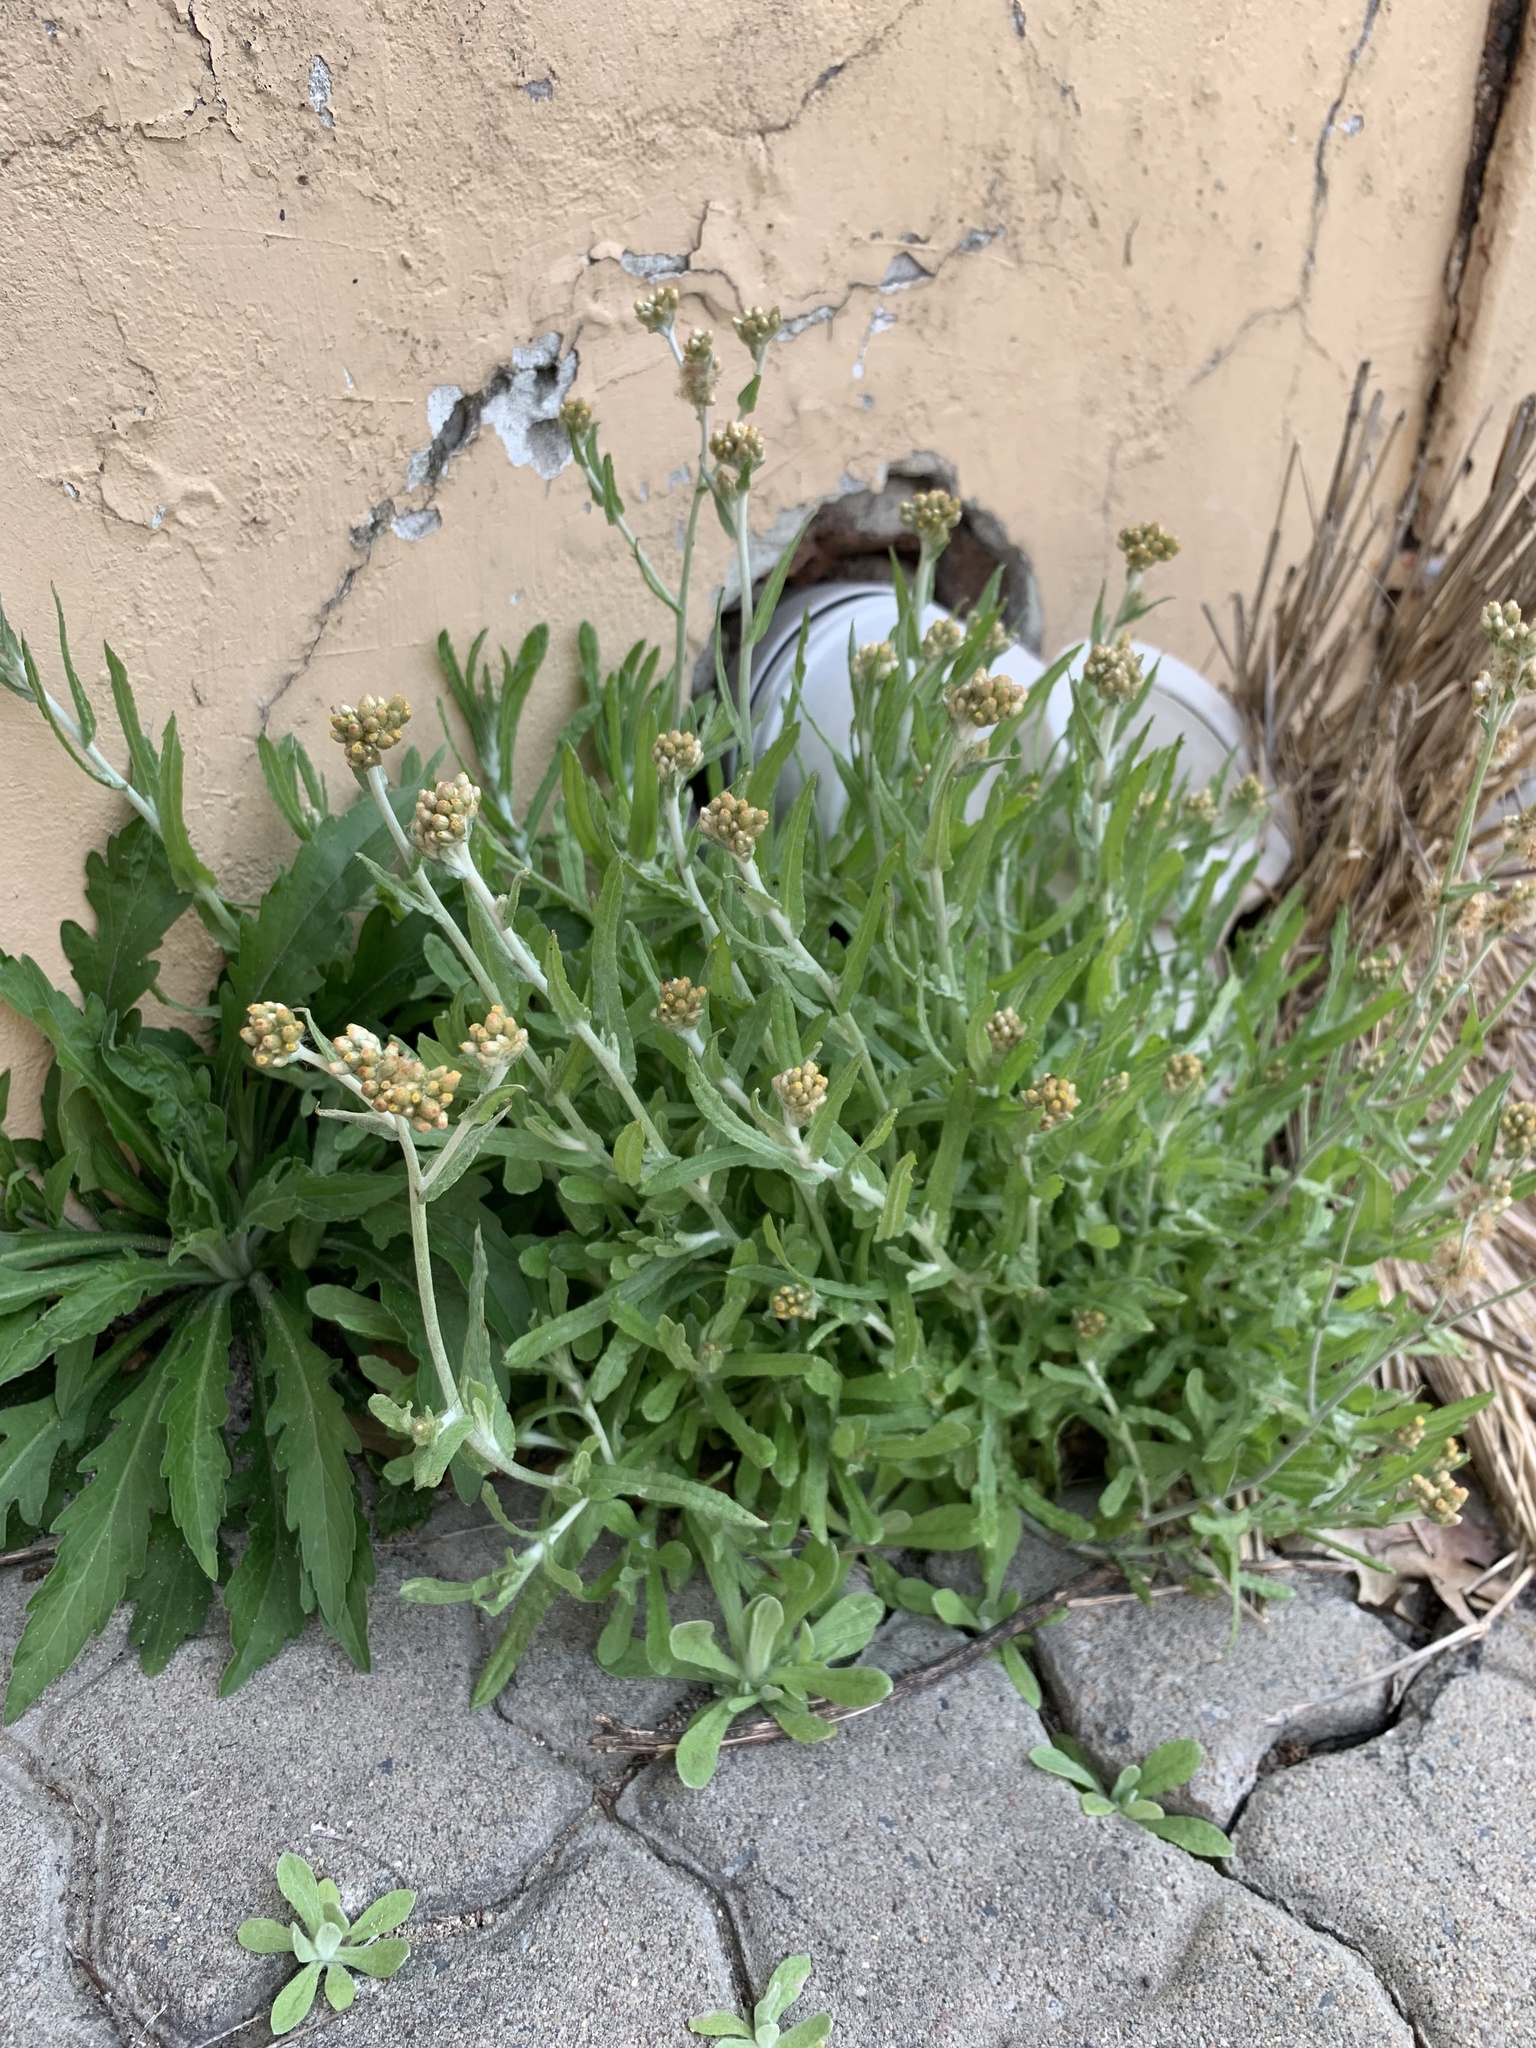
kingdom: Plantae
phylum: Tracheophyta
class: Magnoliopsida
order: Asterales
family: Asteraceae
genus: Helichrysum
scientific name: Helichrysum luteoalbum
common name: Daisy
